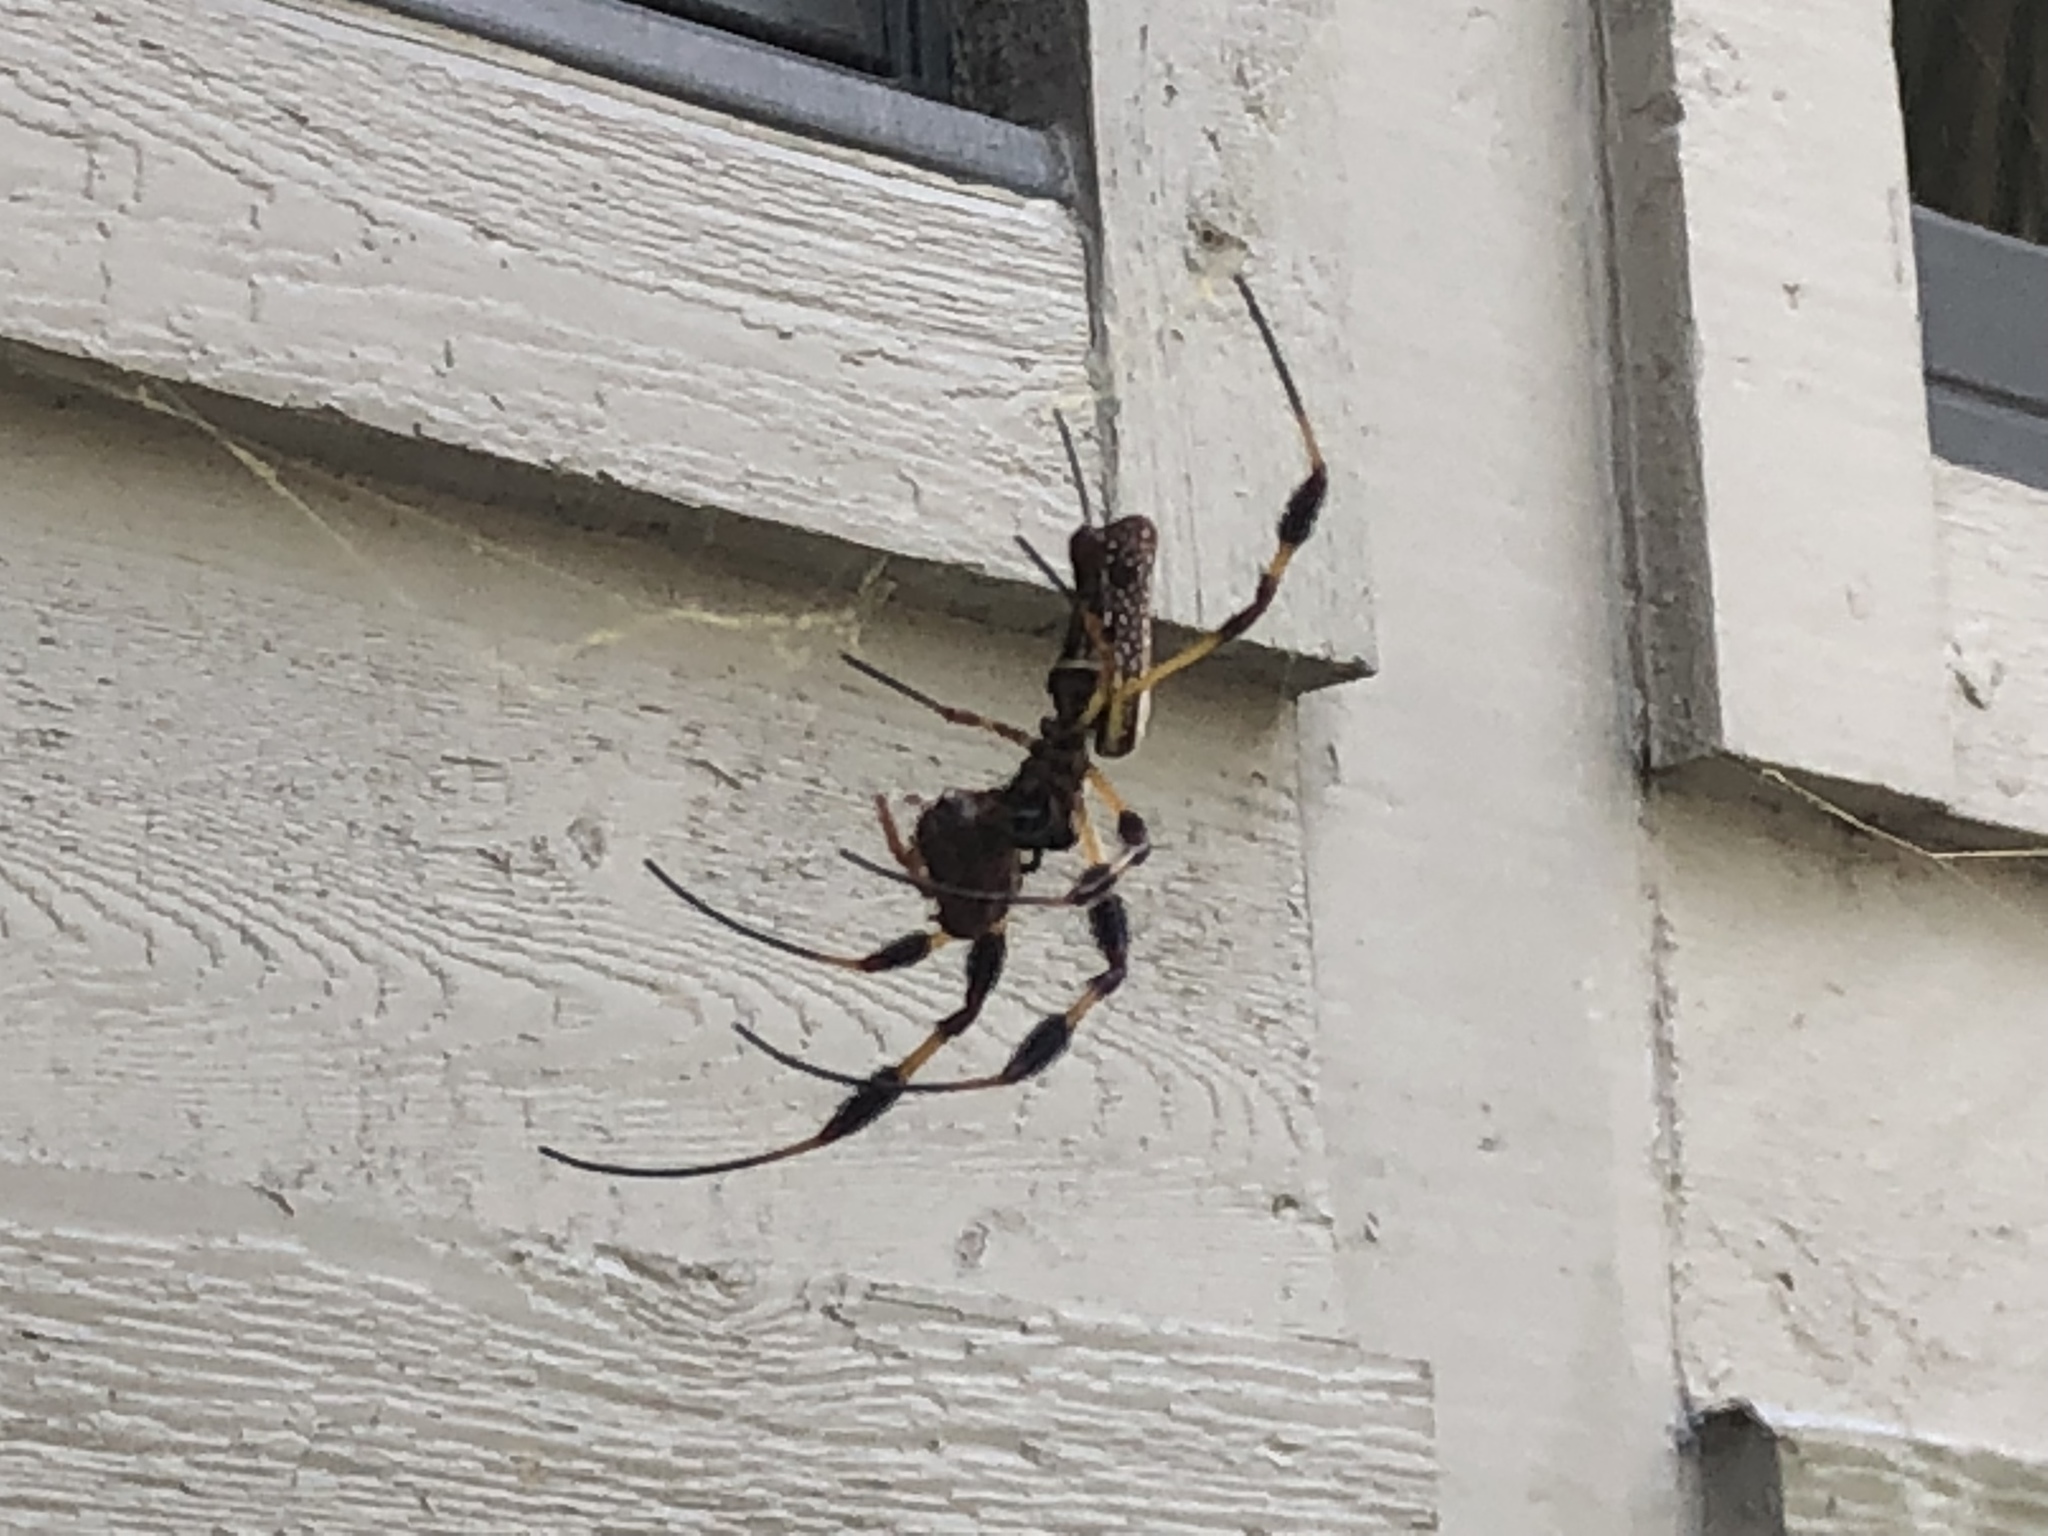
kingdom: Animalia
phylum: Arthropoda
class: Arachnida
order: Araneae
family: Araneidae
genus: Trichonephila
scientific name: Trichonephila clavipes
